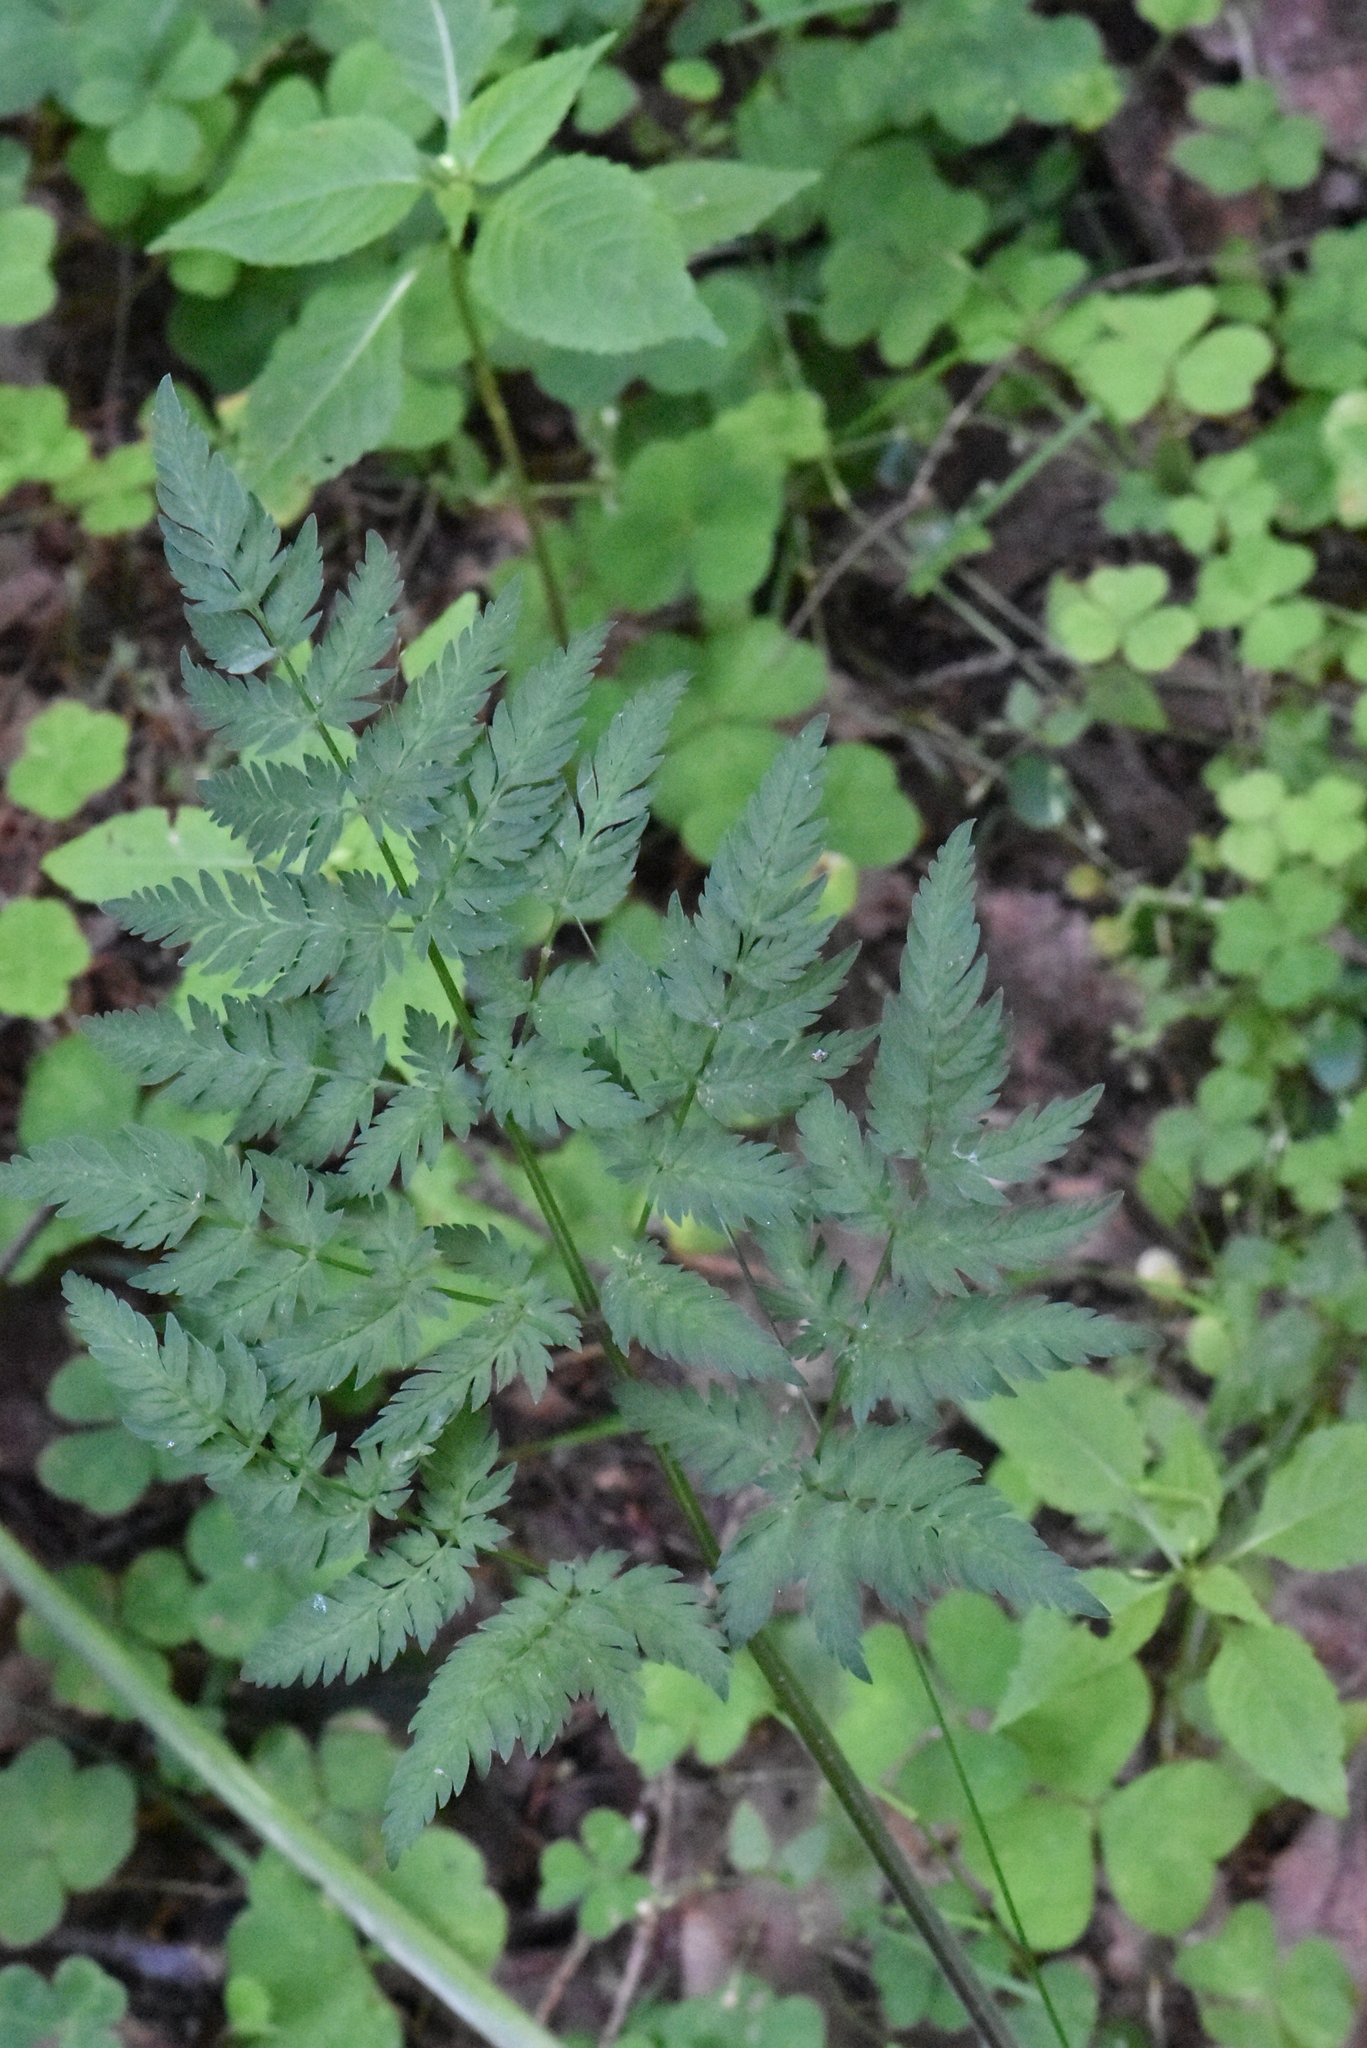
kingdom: Plantae
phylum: Tracheophyta
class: Magnoliopsida
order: Apiales
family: Apiaceae
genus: Anthriscus
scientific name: Anthriscus sylvestris
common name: Cow parsley
